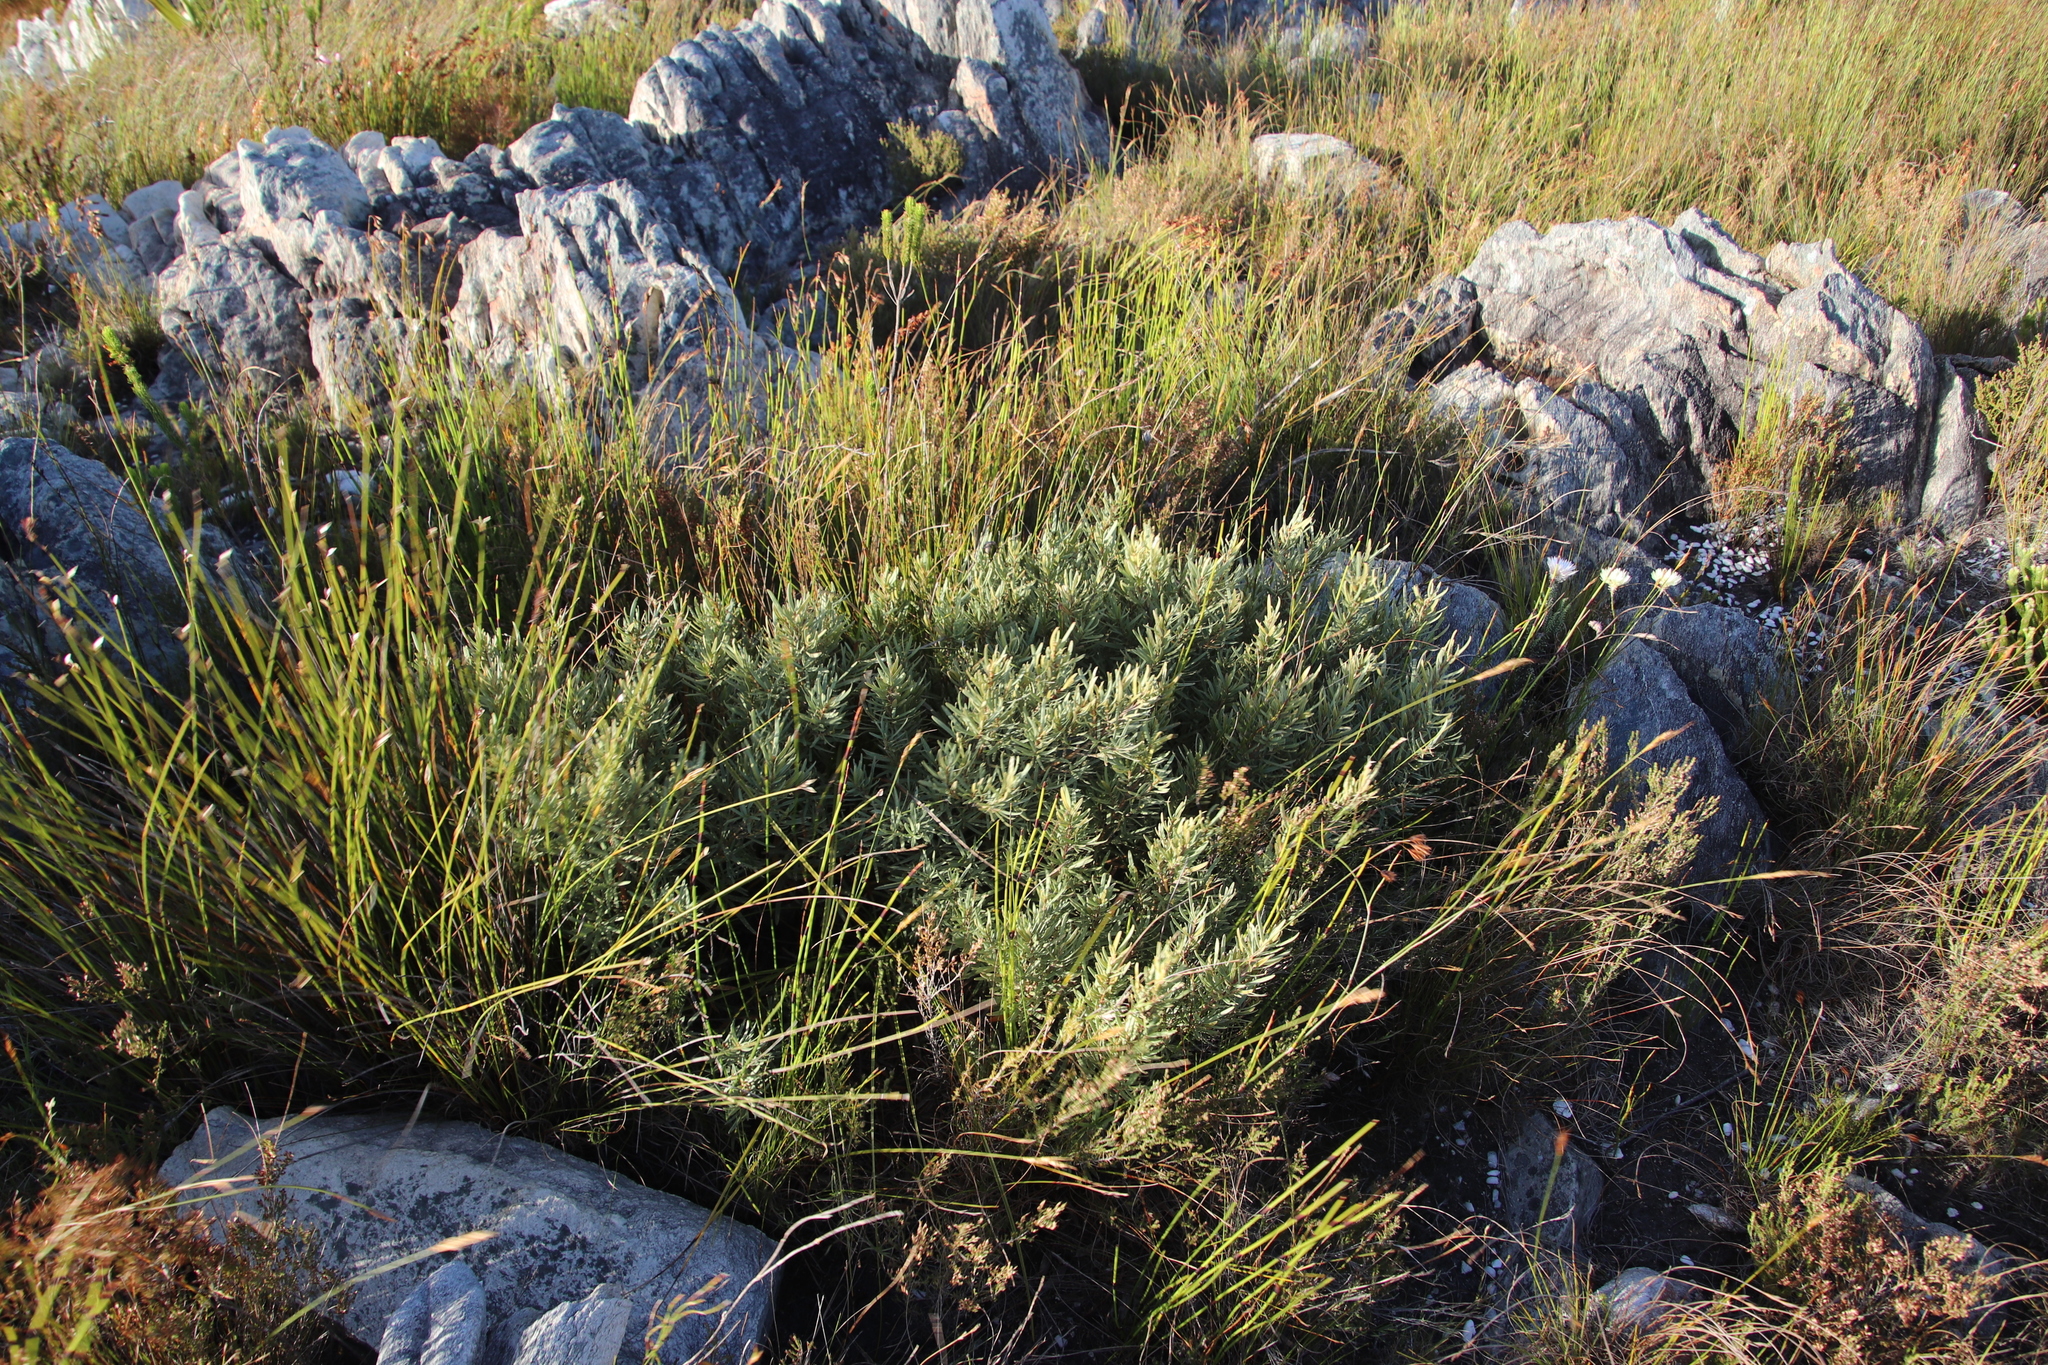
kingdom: Plantae
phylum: Tracheophyta
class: Magnoliopsida
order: Cornales
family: Grubbiaceae
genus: Grubbia
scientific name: Grubbia tomentosa
